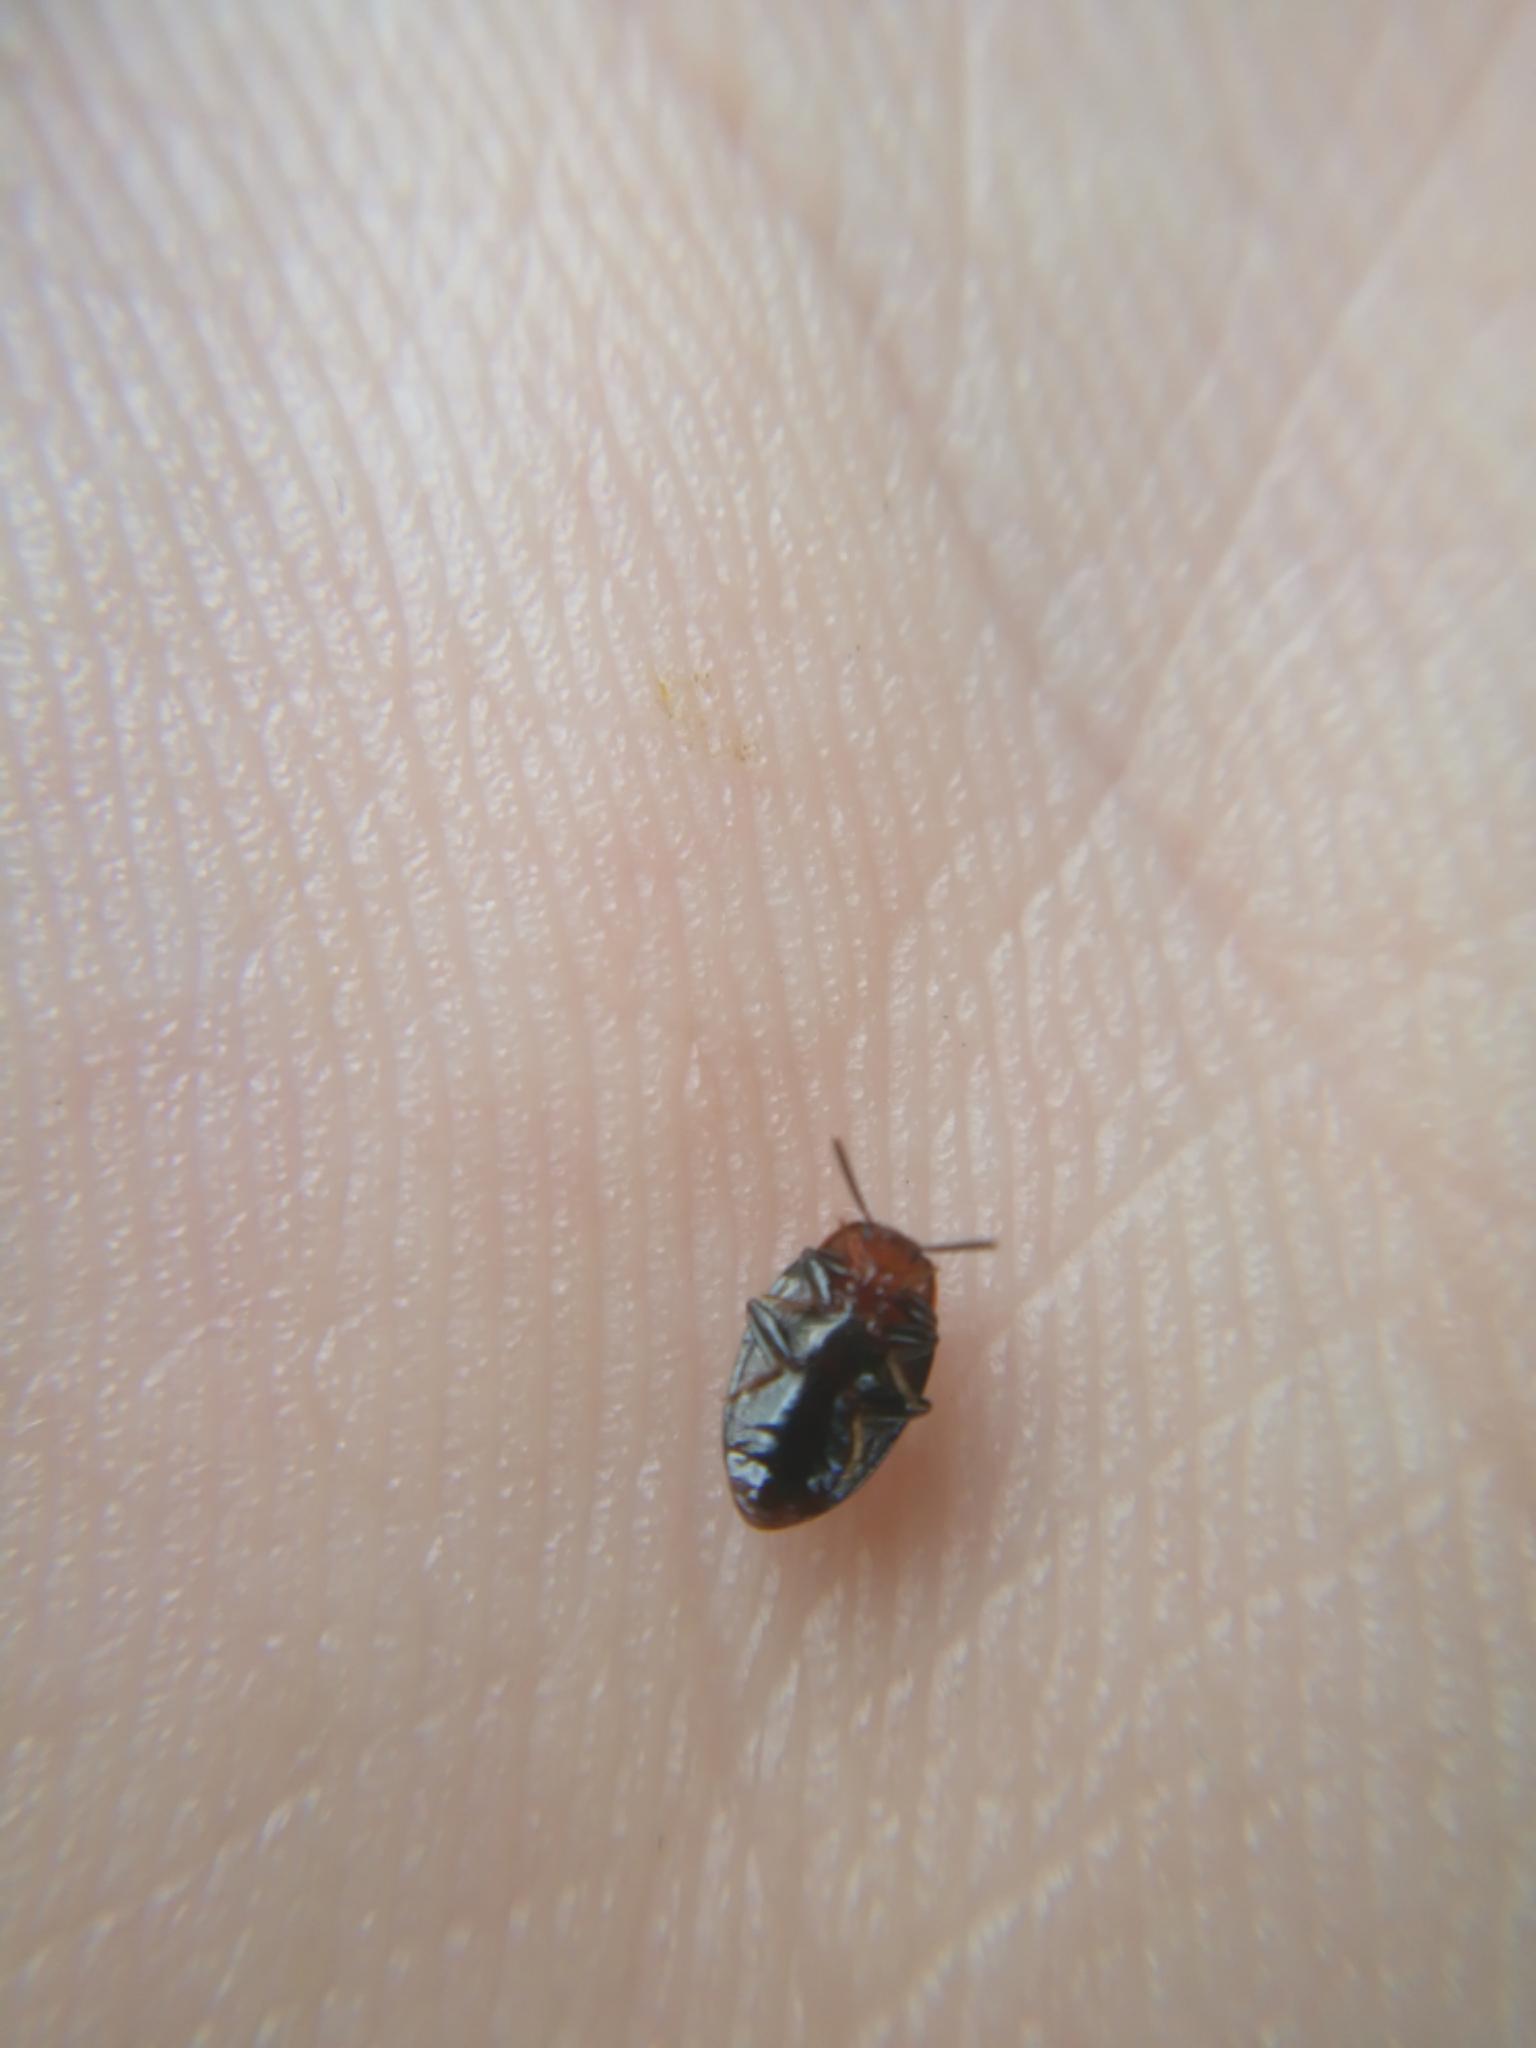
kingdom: Animalia
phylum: Arthropoda
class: Insecta
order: Coleoptera
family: Tenebrionidae
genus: Blapstinus
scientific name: Blapstinus metallicus
